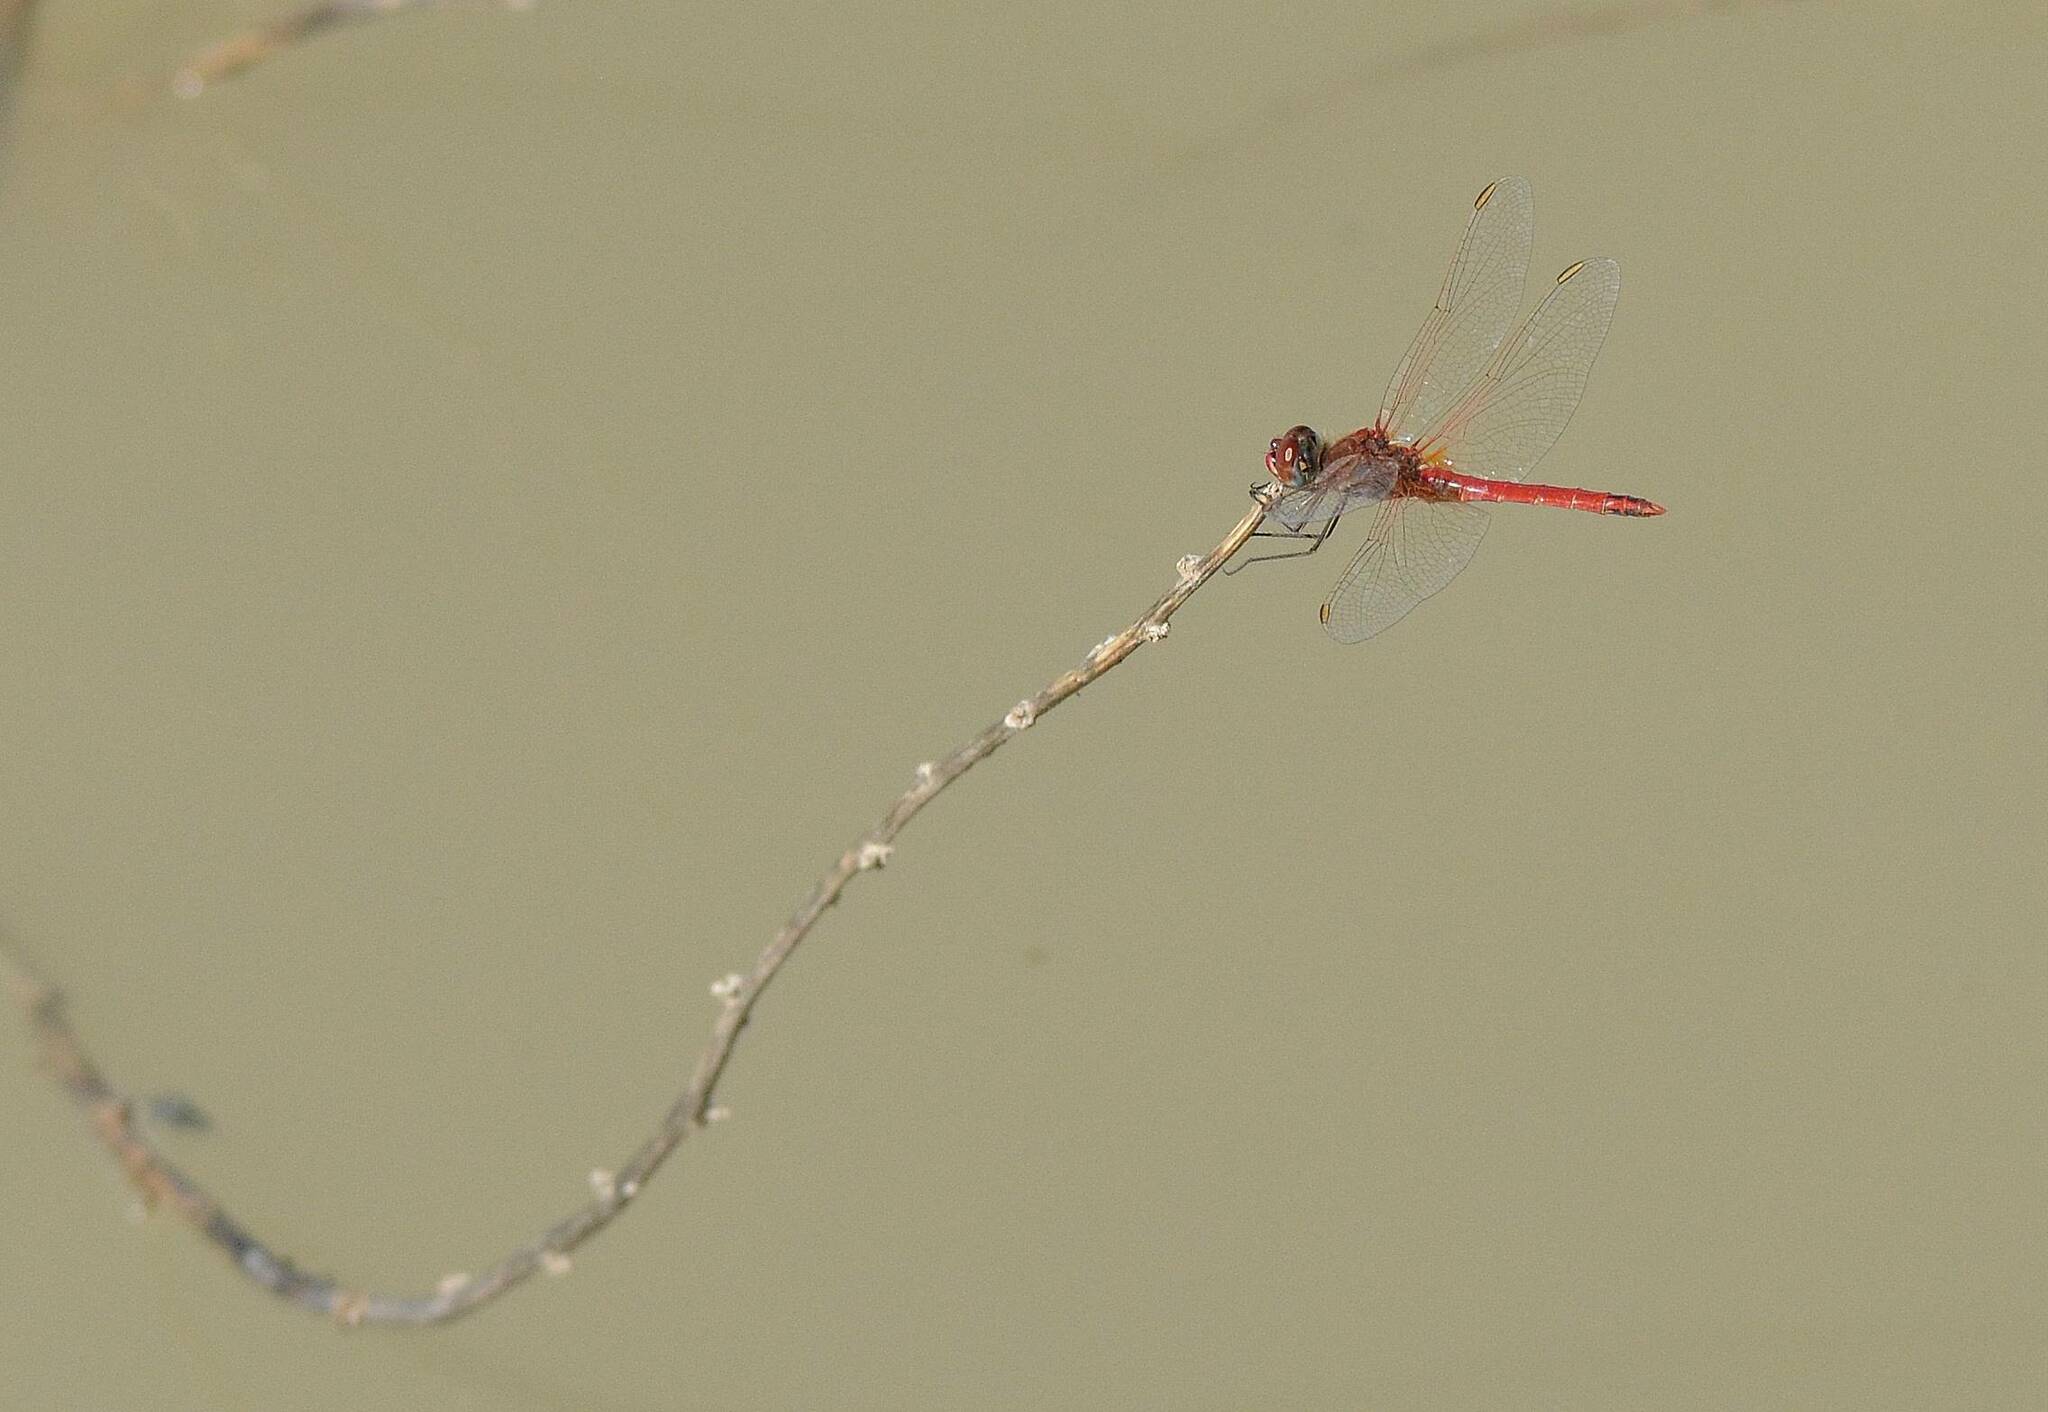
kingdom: Animalia
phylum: Arthropoda
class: Insecta
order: Odonata
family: Libellulidae
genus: Sympetrum
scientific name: Sympetrum fonscolombii
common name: Red-veined darter
